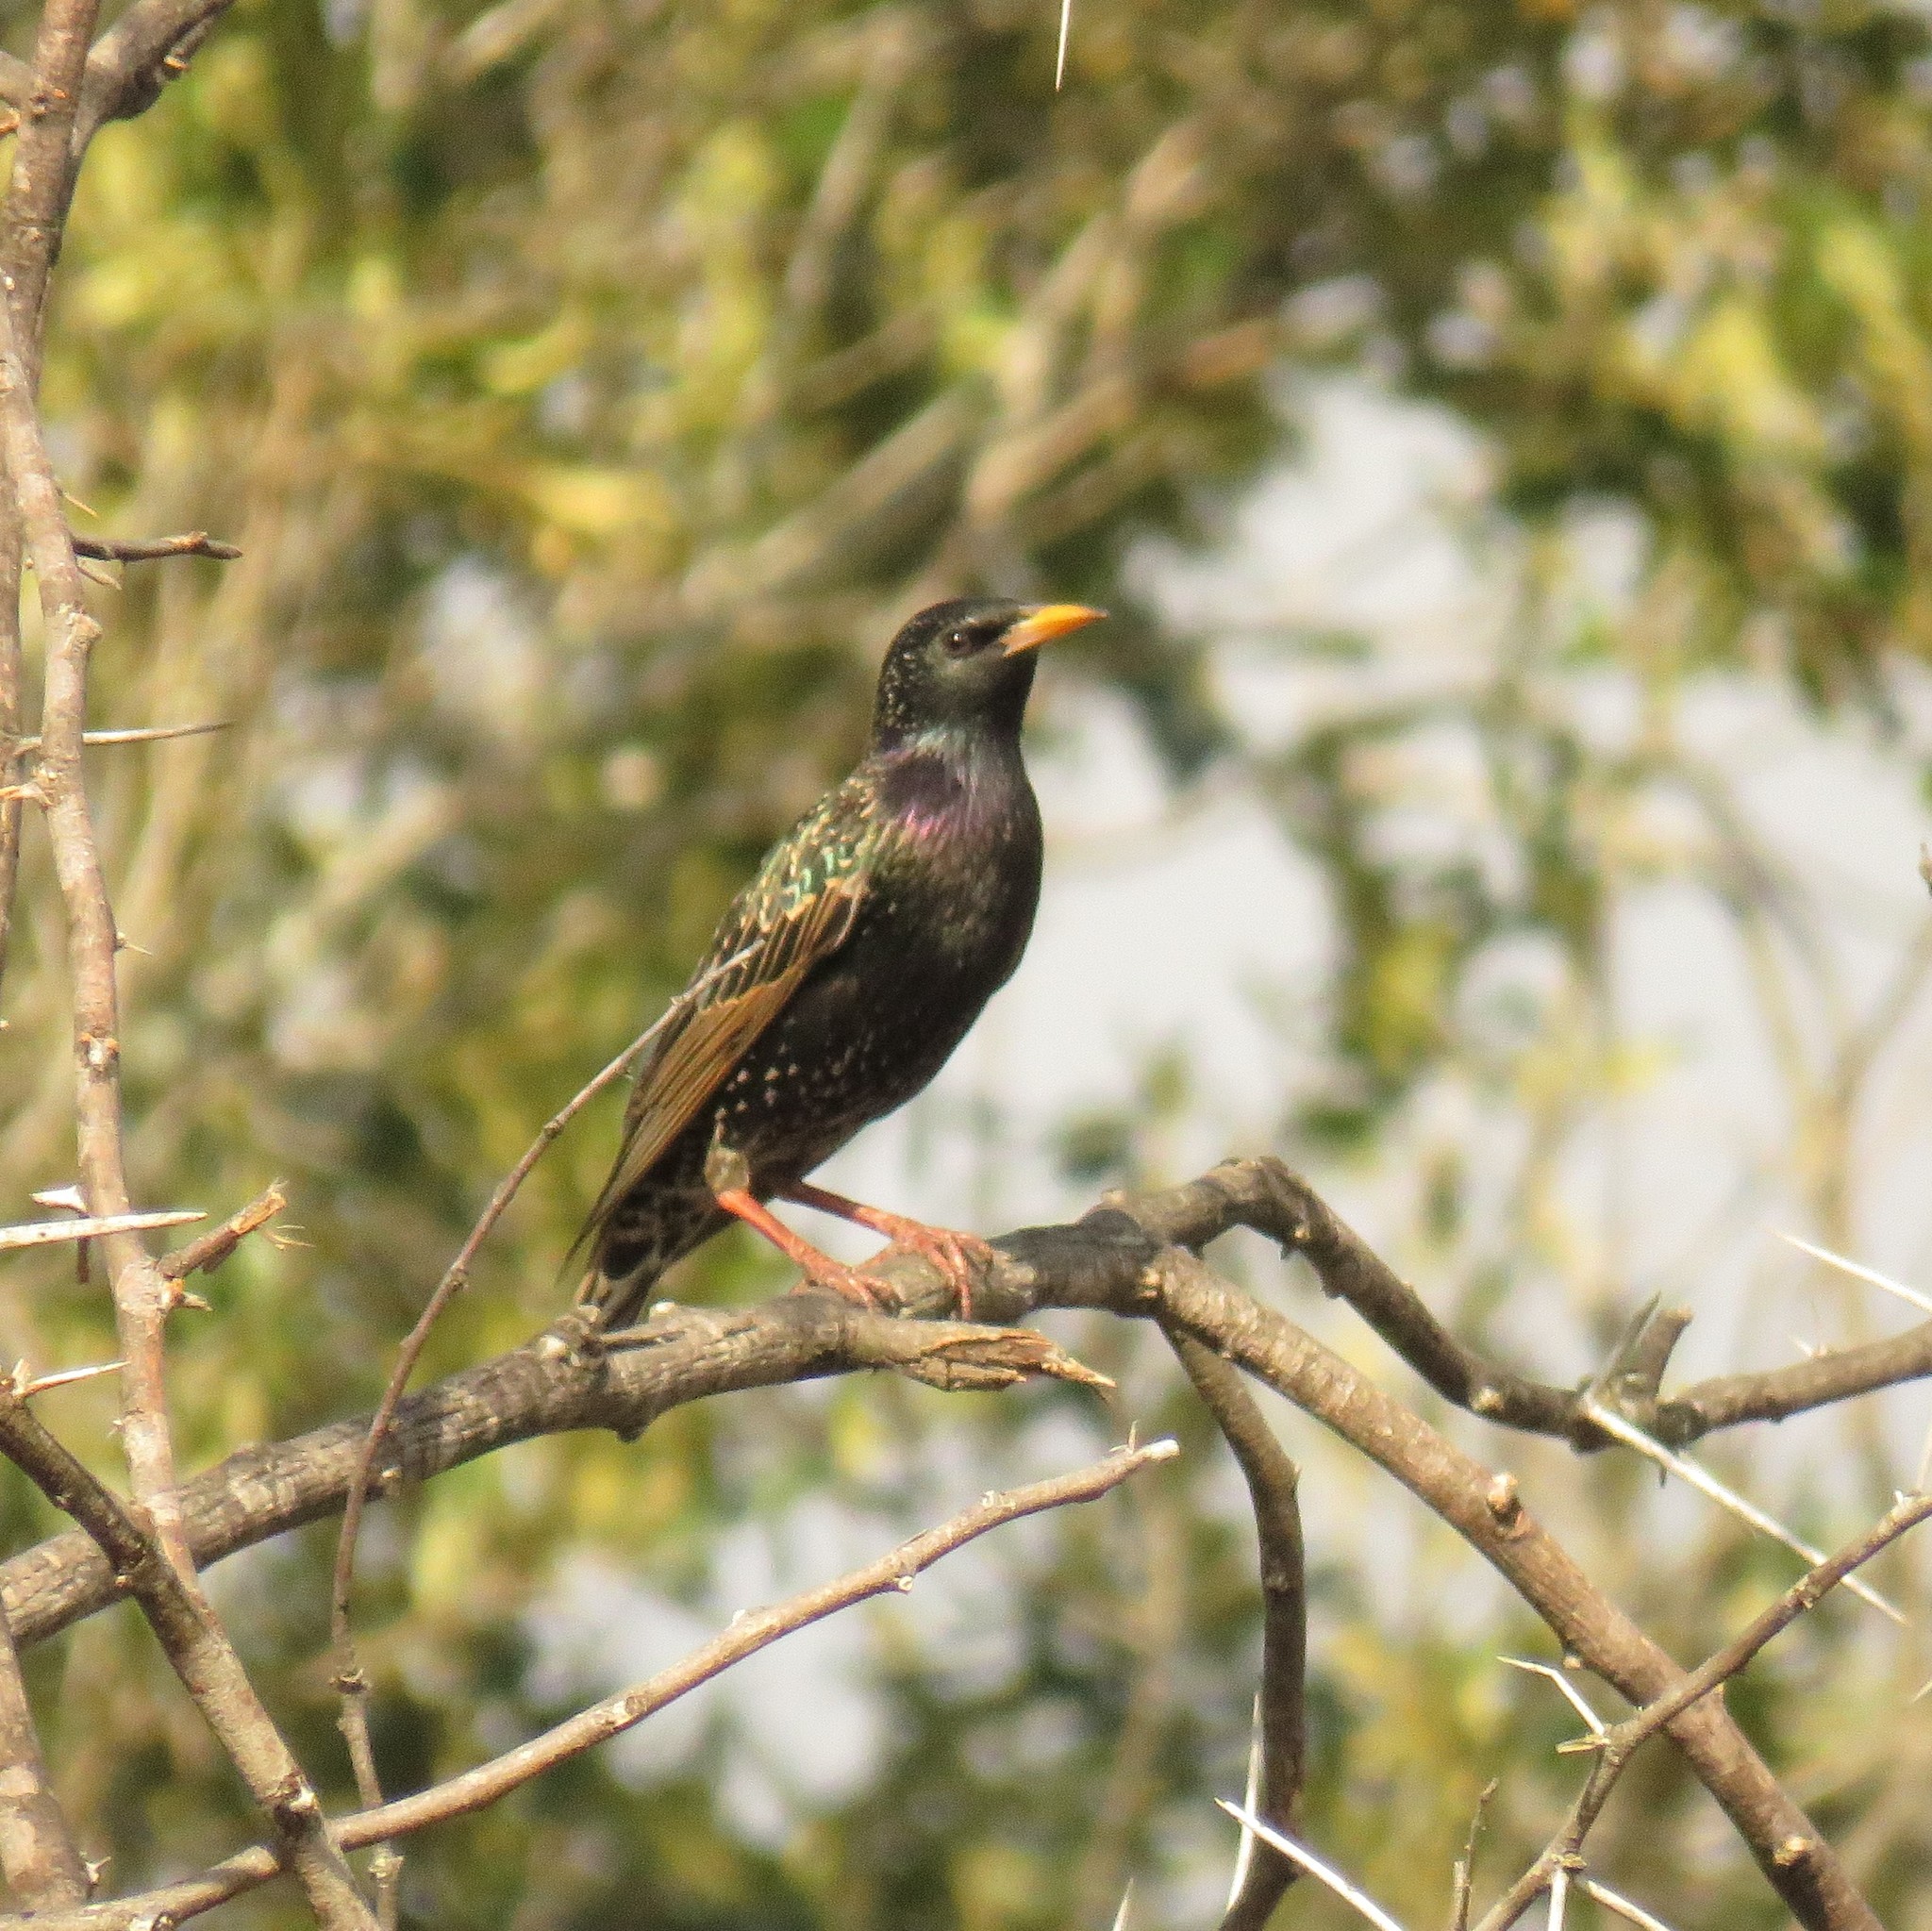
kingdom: Animalia
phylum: Chordata
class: Aves
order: Passeriformes
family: Sturnidae
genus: Sturnus
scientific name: Sturnus vulgaris
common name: Common starling
